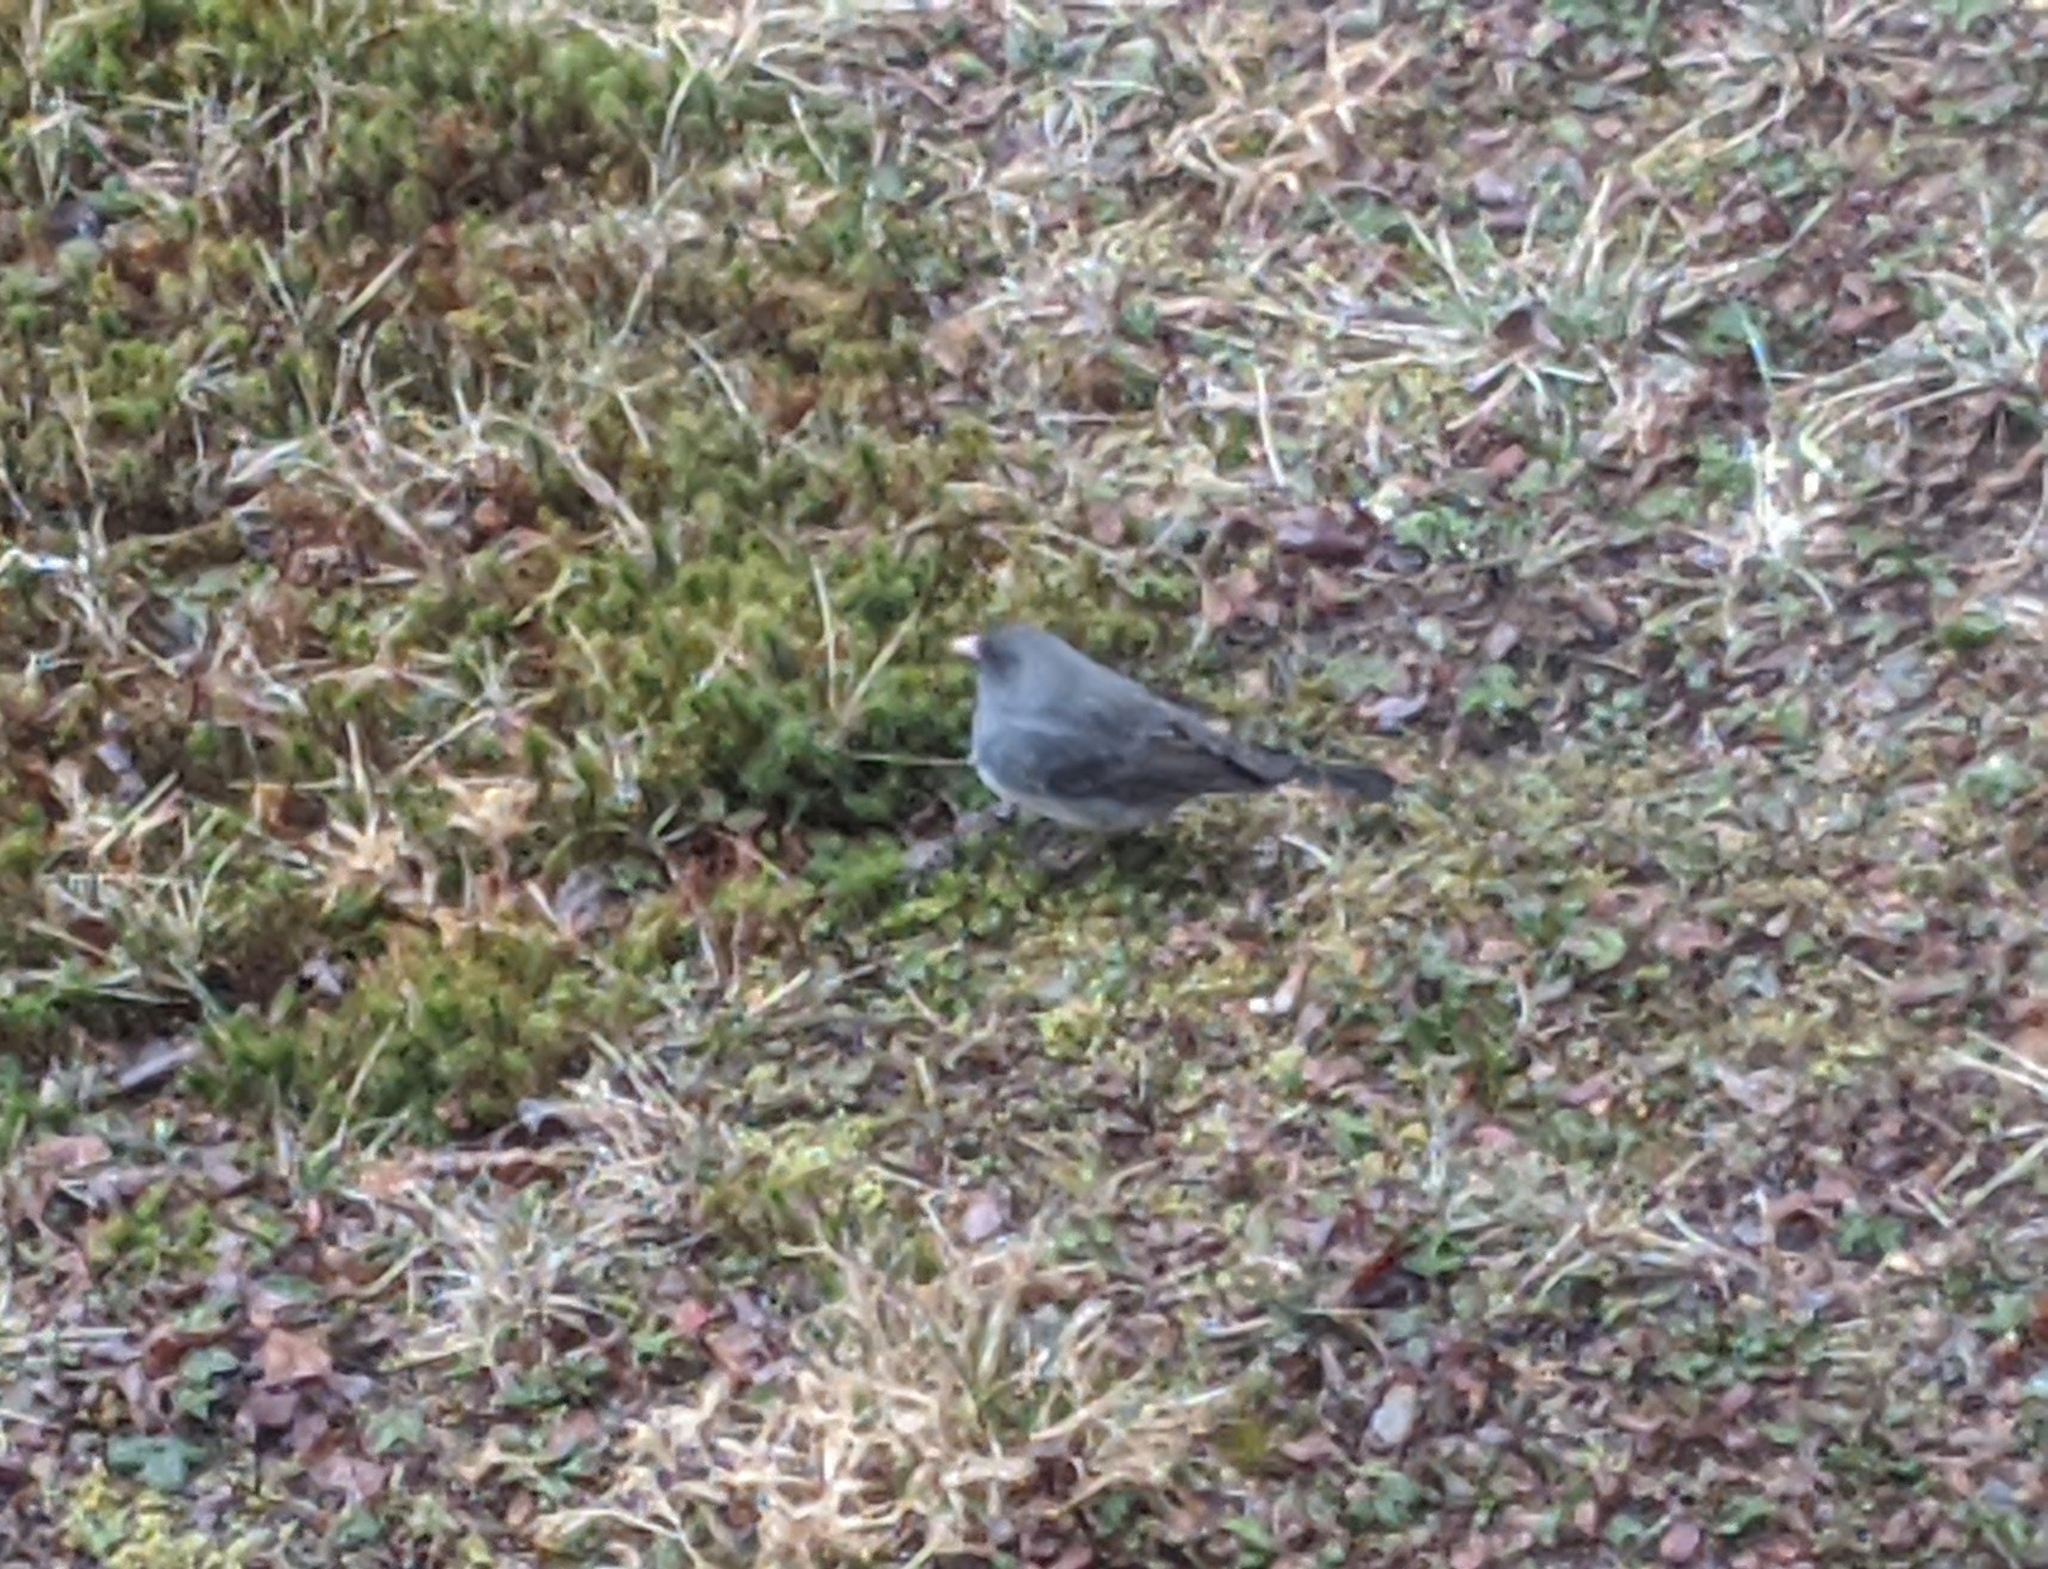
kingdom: Animalia
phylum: Chordata
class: Aves
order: Passeriformes
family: Passerellidae
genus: Junco
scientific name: Junco hyemalis
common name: Dark-eyed junco
